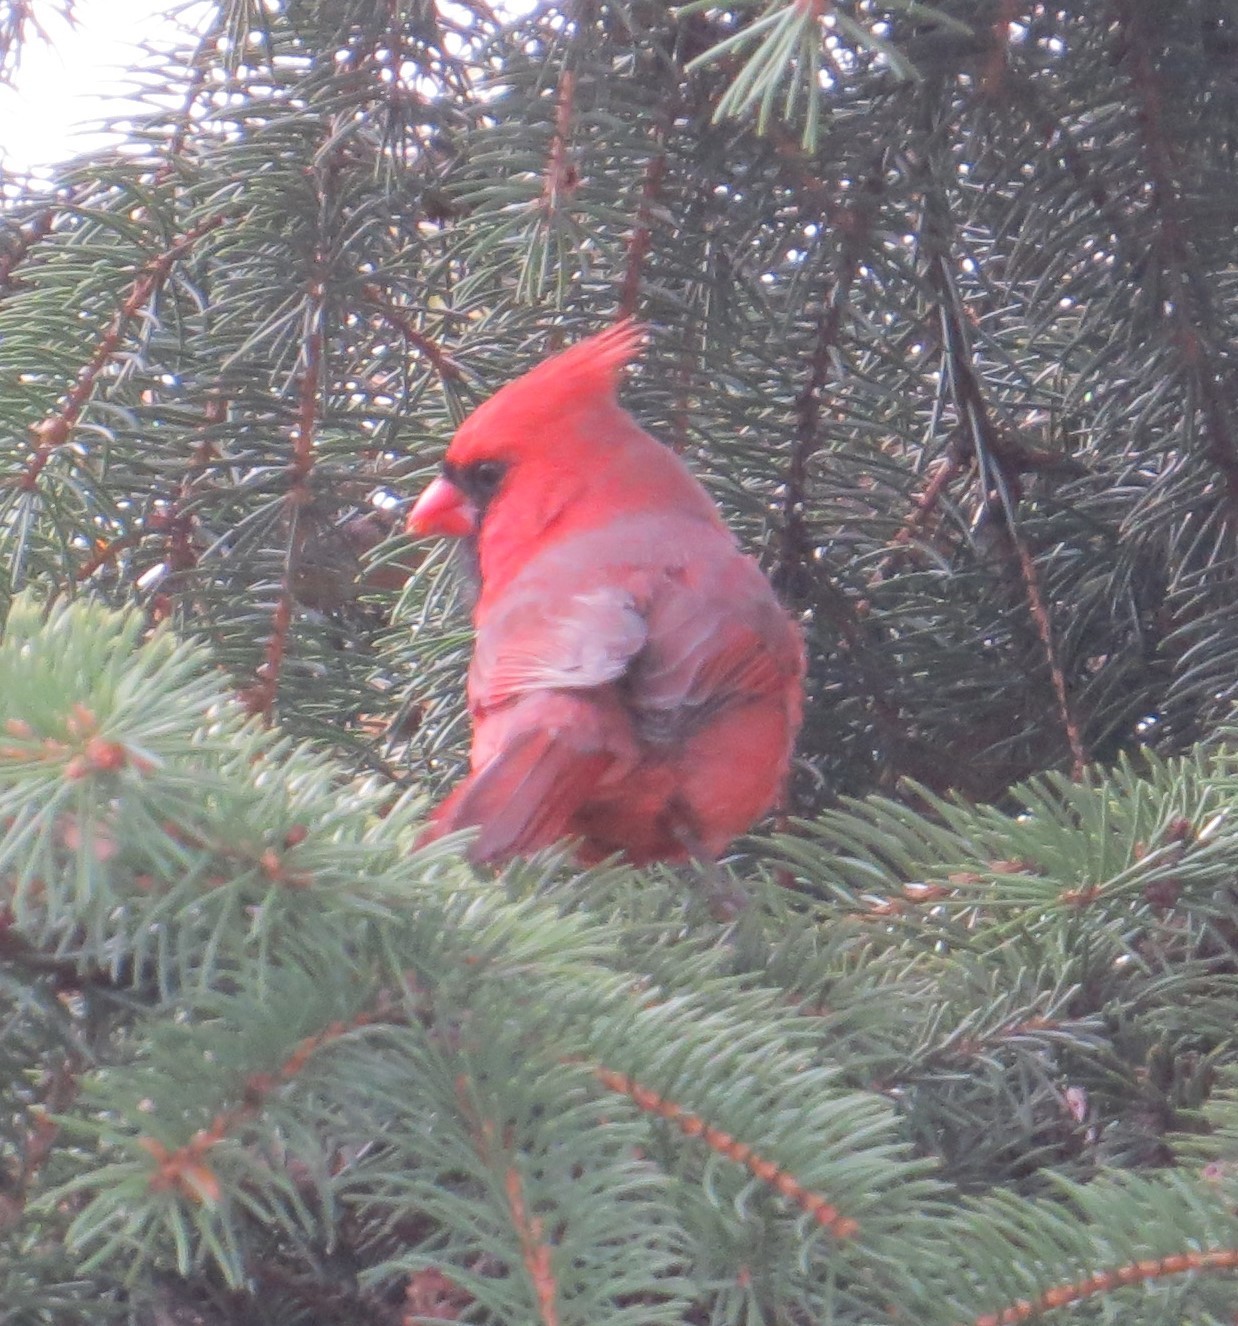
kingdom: Animalia
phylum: Chordata
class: Aves
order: Passeriformes
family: Cardinalidae
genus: Cardinalis
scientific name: Cardinalis cardinalis
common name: Northern cardinal
